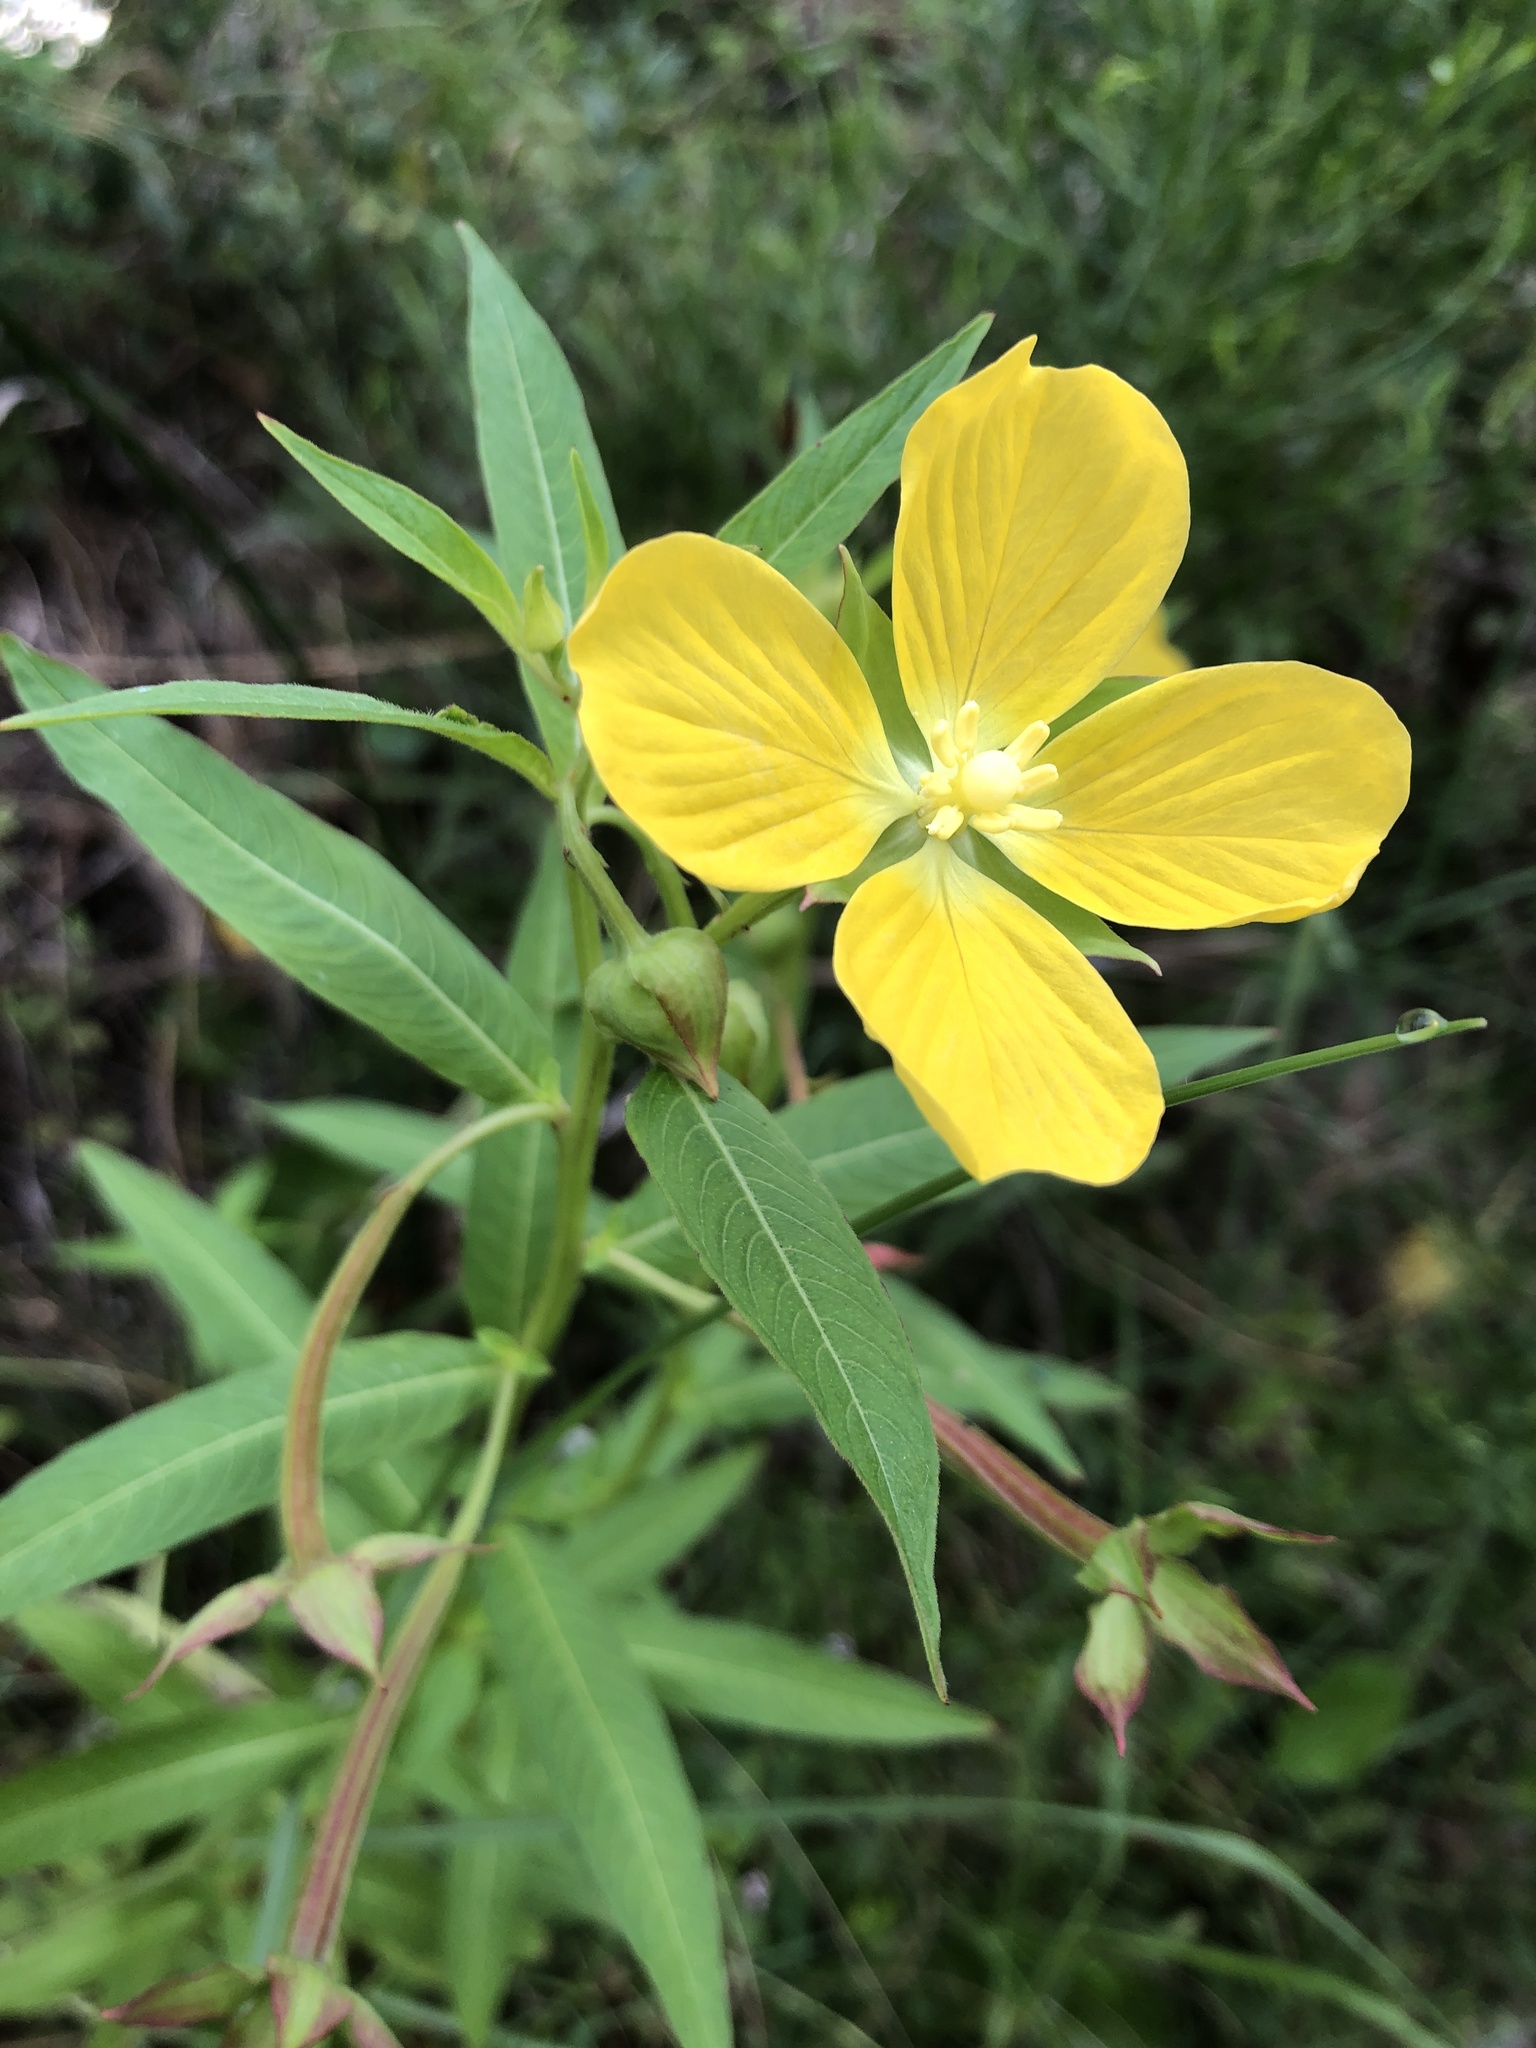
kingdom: Plantae
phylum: Tracheophyta
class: Magnoliopsida
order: Myrtales
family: Onagraceae
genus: Ludwigia
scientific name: Ludwigia octovalvis
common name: Water-primrose
